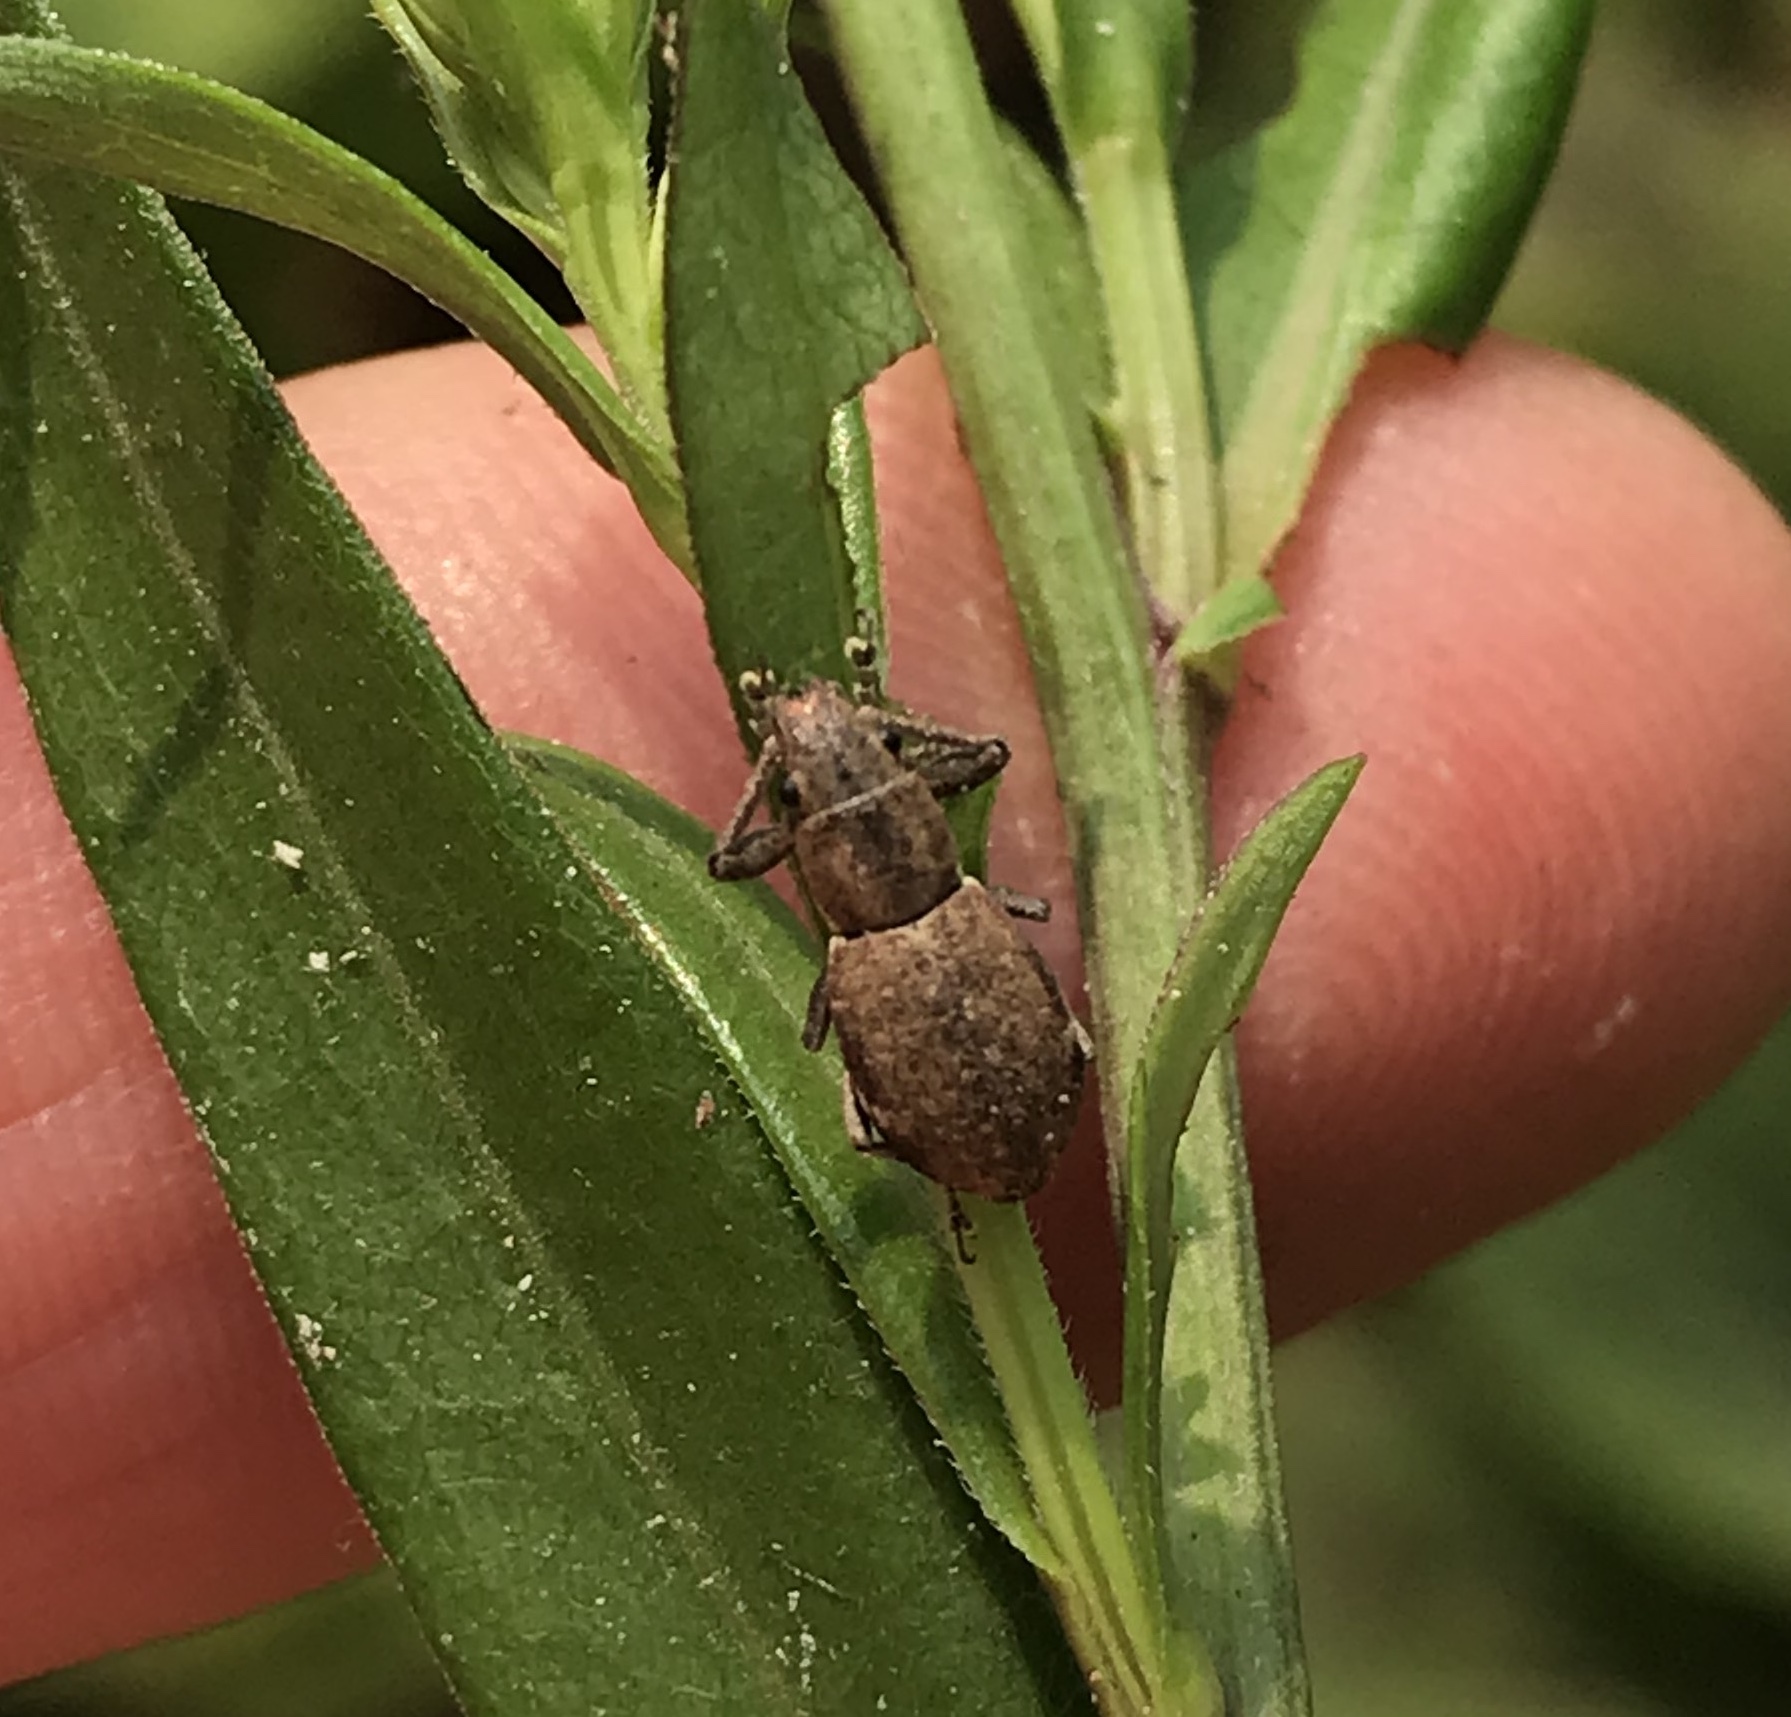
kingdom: Animalia
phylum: Arthropoda
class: Insecta
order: Coleoptera
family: Curculionidae
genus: Naupactus
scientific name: Naupactus cervinus
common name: Fuller rose beetle
